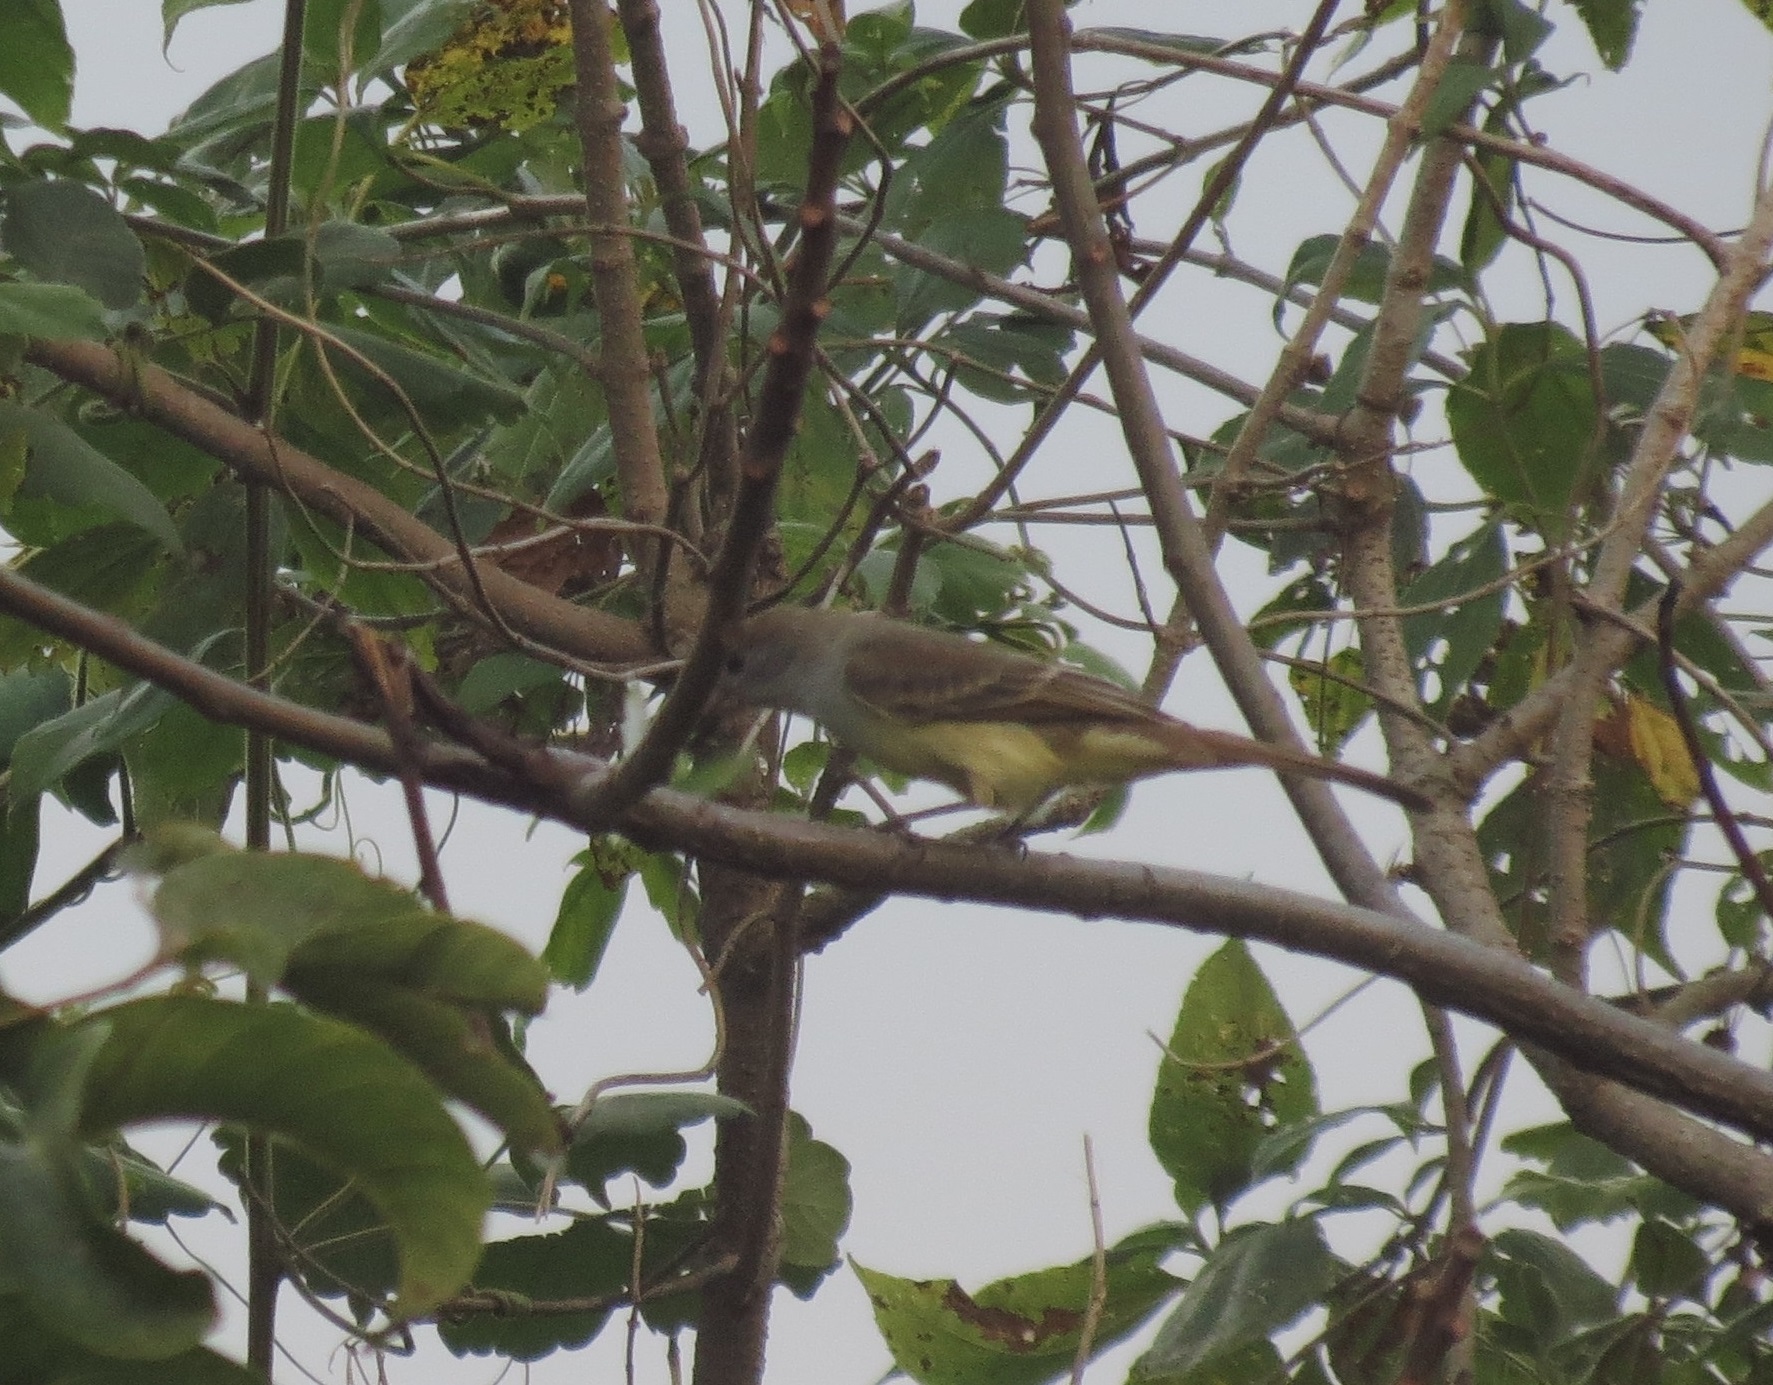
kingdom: Animalia
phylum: Chordata
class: Aves
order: Passeriformes
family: Tyrannidae
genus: Myiarchus
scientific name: Myiarchus tyrannulus
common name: Brown-crested flycatcher
